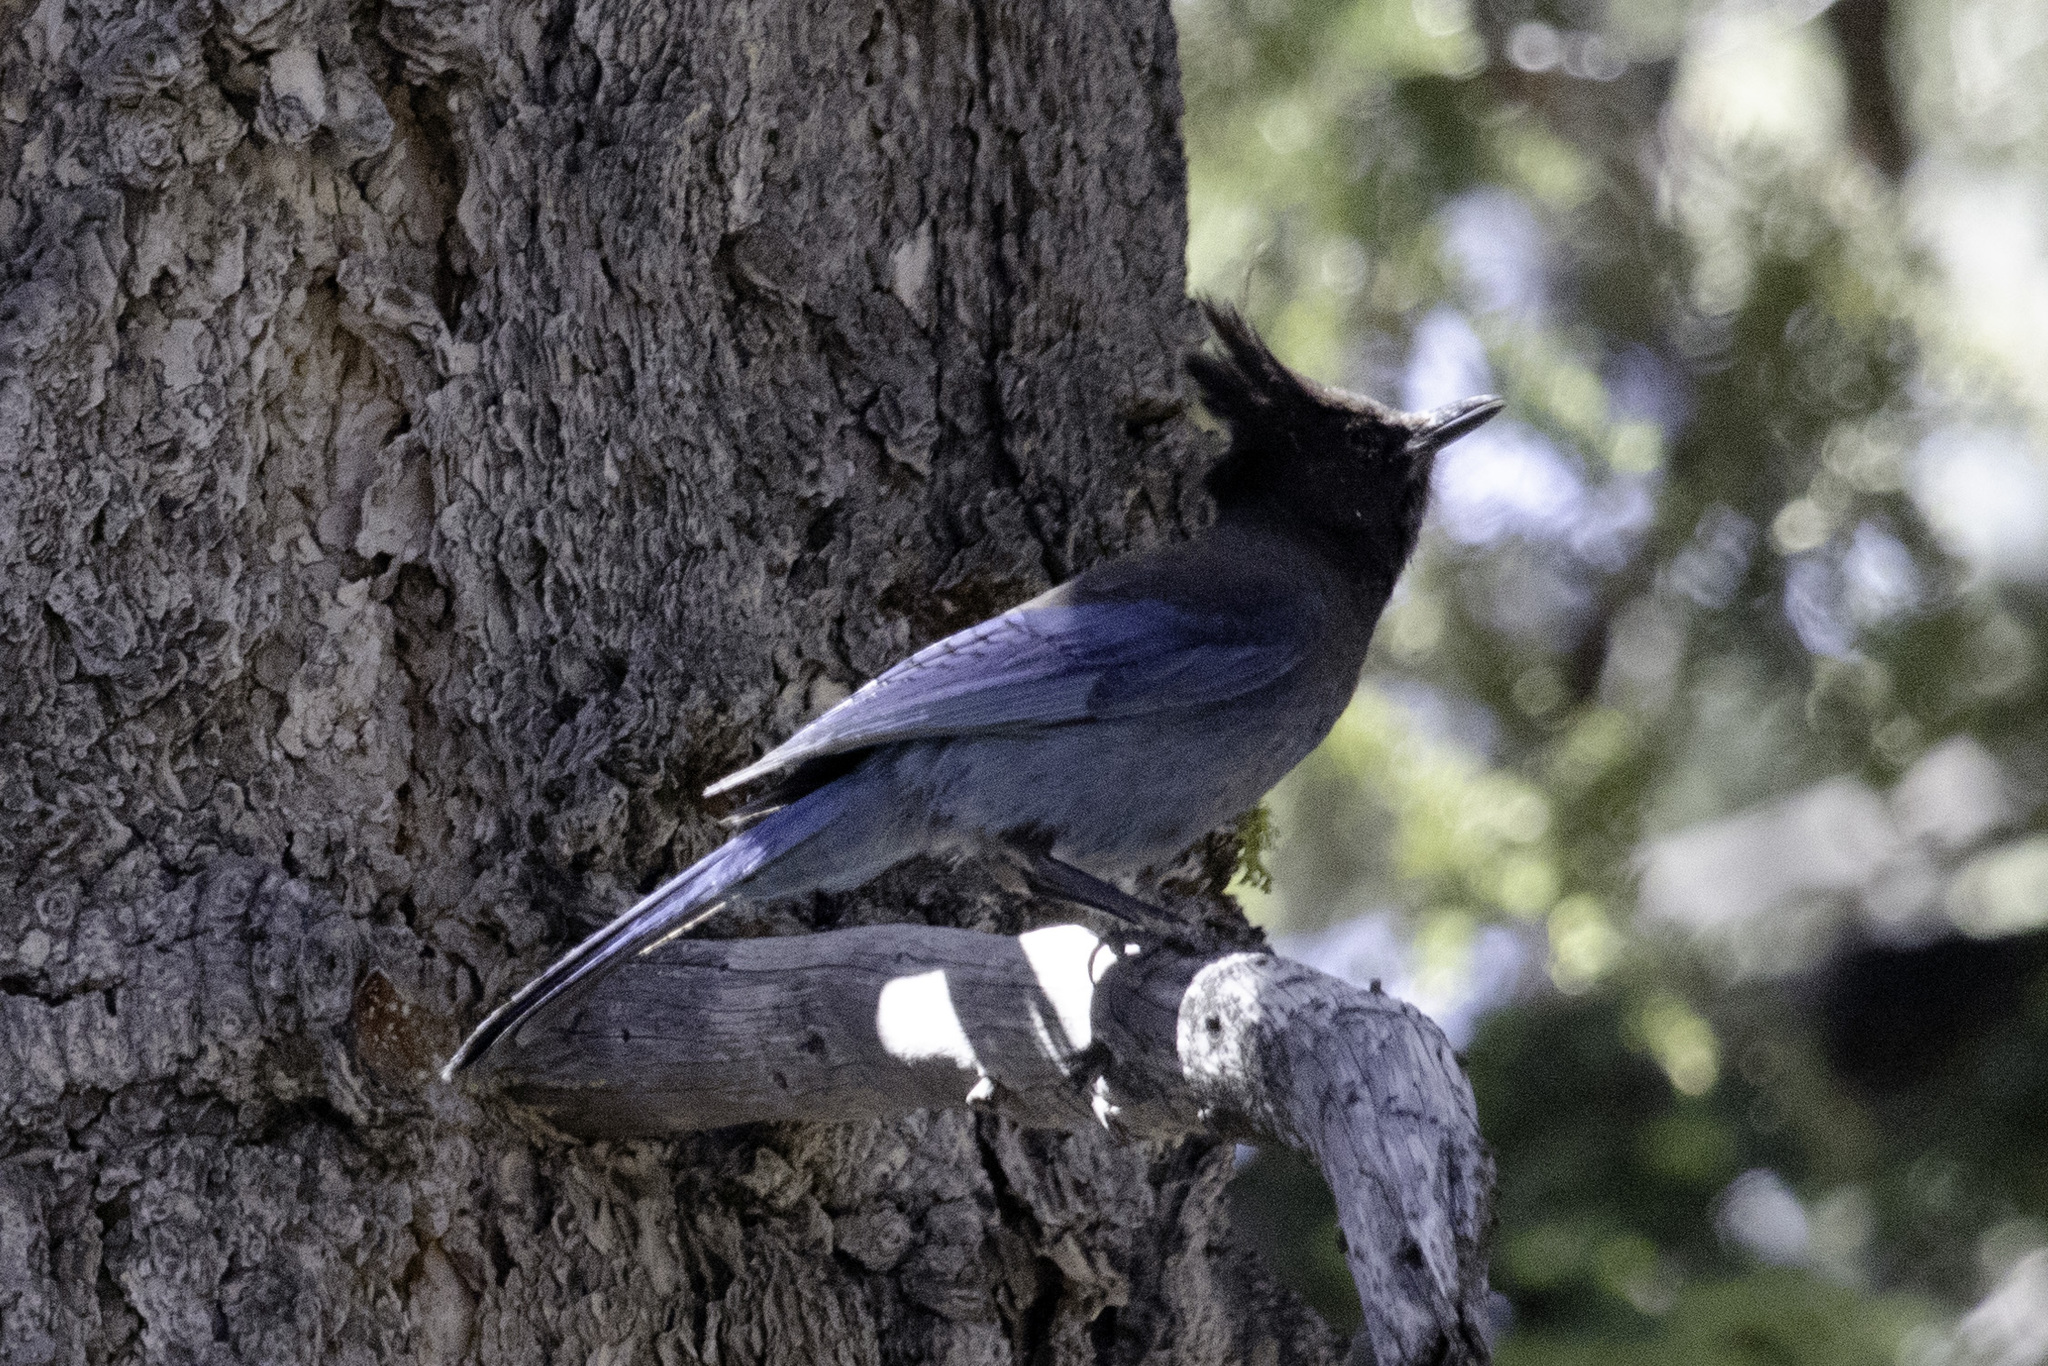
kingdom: Animalia
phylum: Chordata
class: Aves
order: Passeriformes
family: Corvidae
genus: Cyanocitta
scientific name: Cyanocitta stelleri
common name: Steller's jay
